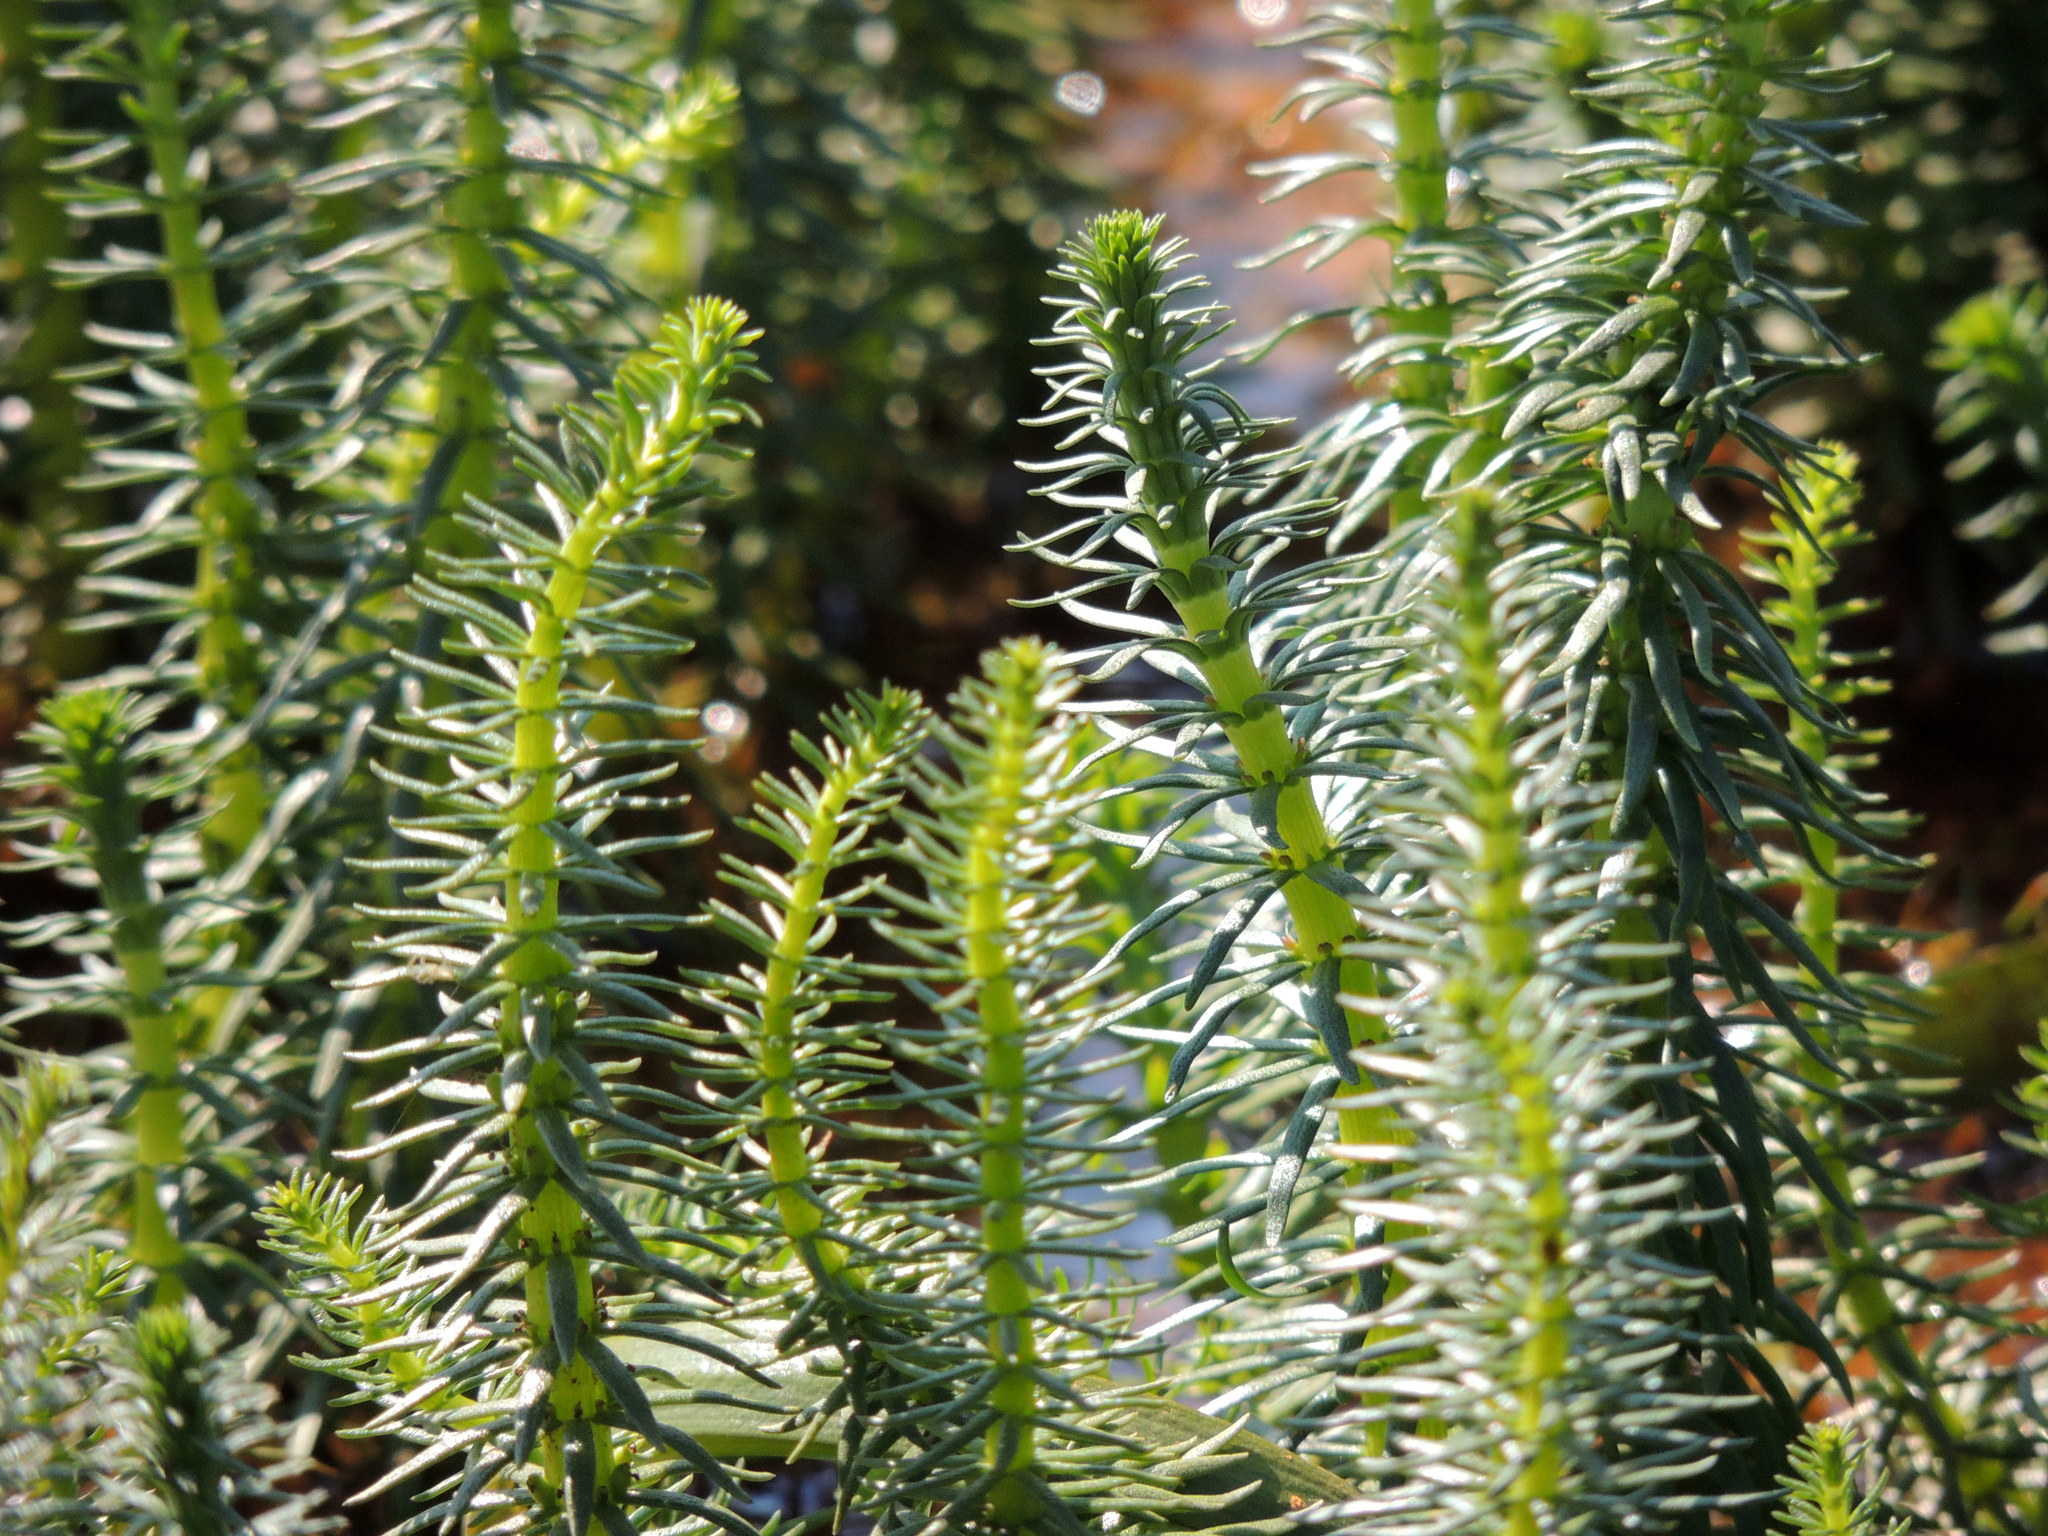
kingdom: Plantae
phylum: Tracheophyta
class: Magnoliopsida
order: Lamiales
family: Plantaginaceae
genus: Hippuris
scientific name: Hippuris vulgaris
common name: Mare's-tail
